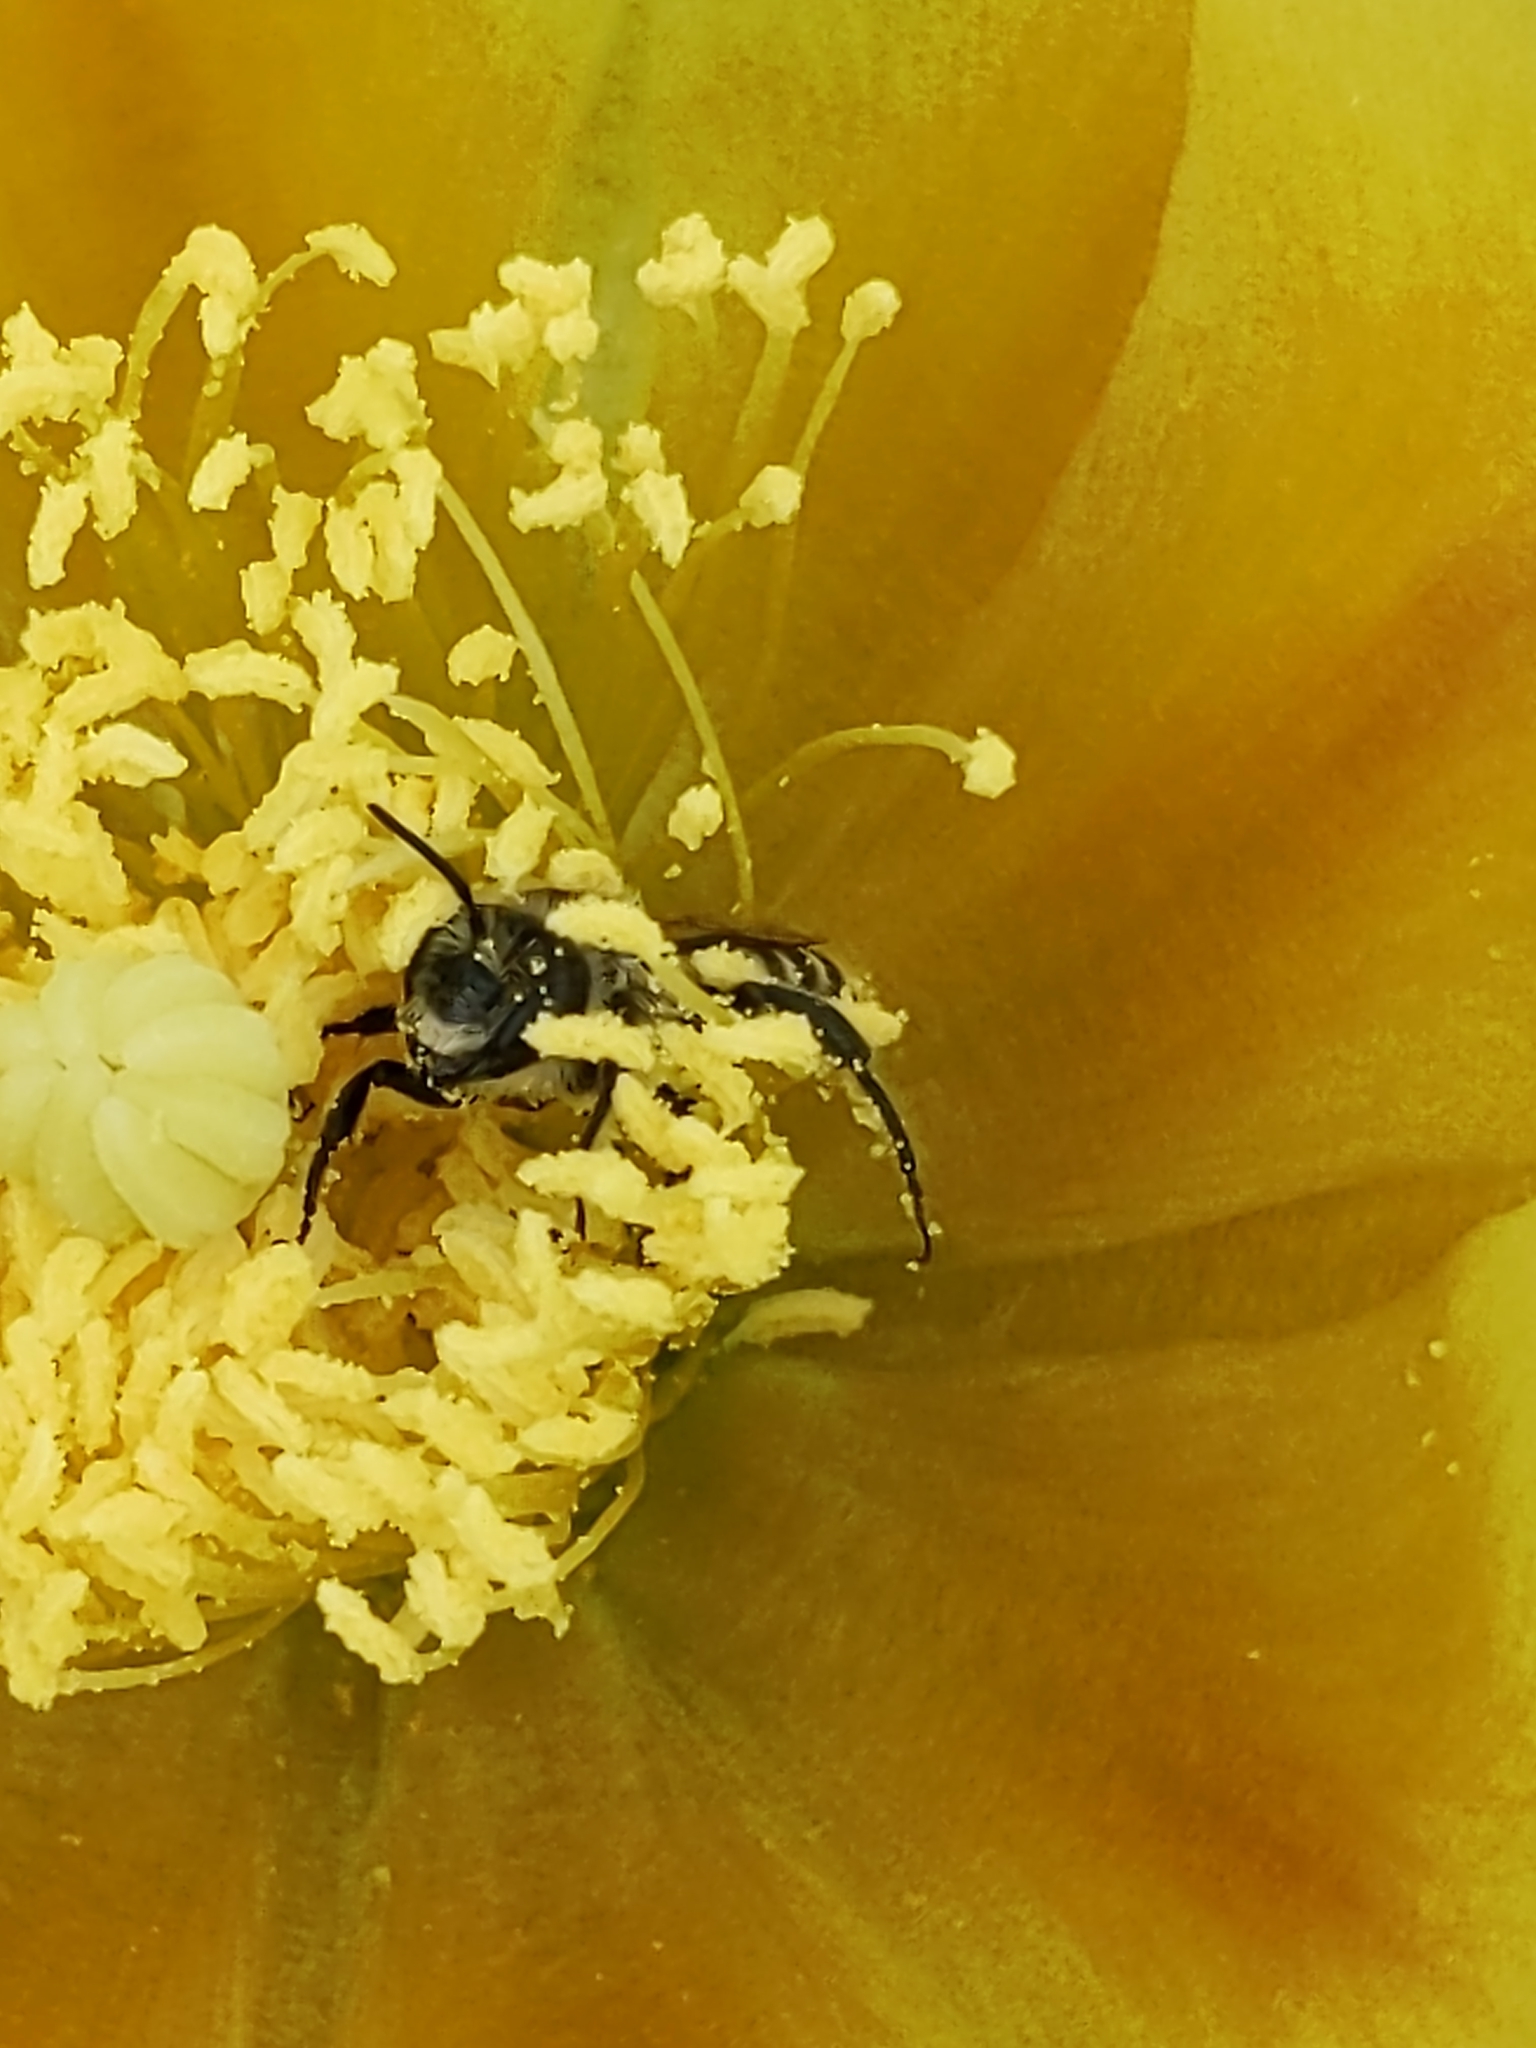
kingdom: Animalia
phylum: Arthropoda
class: Insecta
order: Hymenoptera
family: Megachilidae
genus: Lithurgopsis
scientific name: Lithurgopsis apicalis
